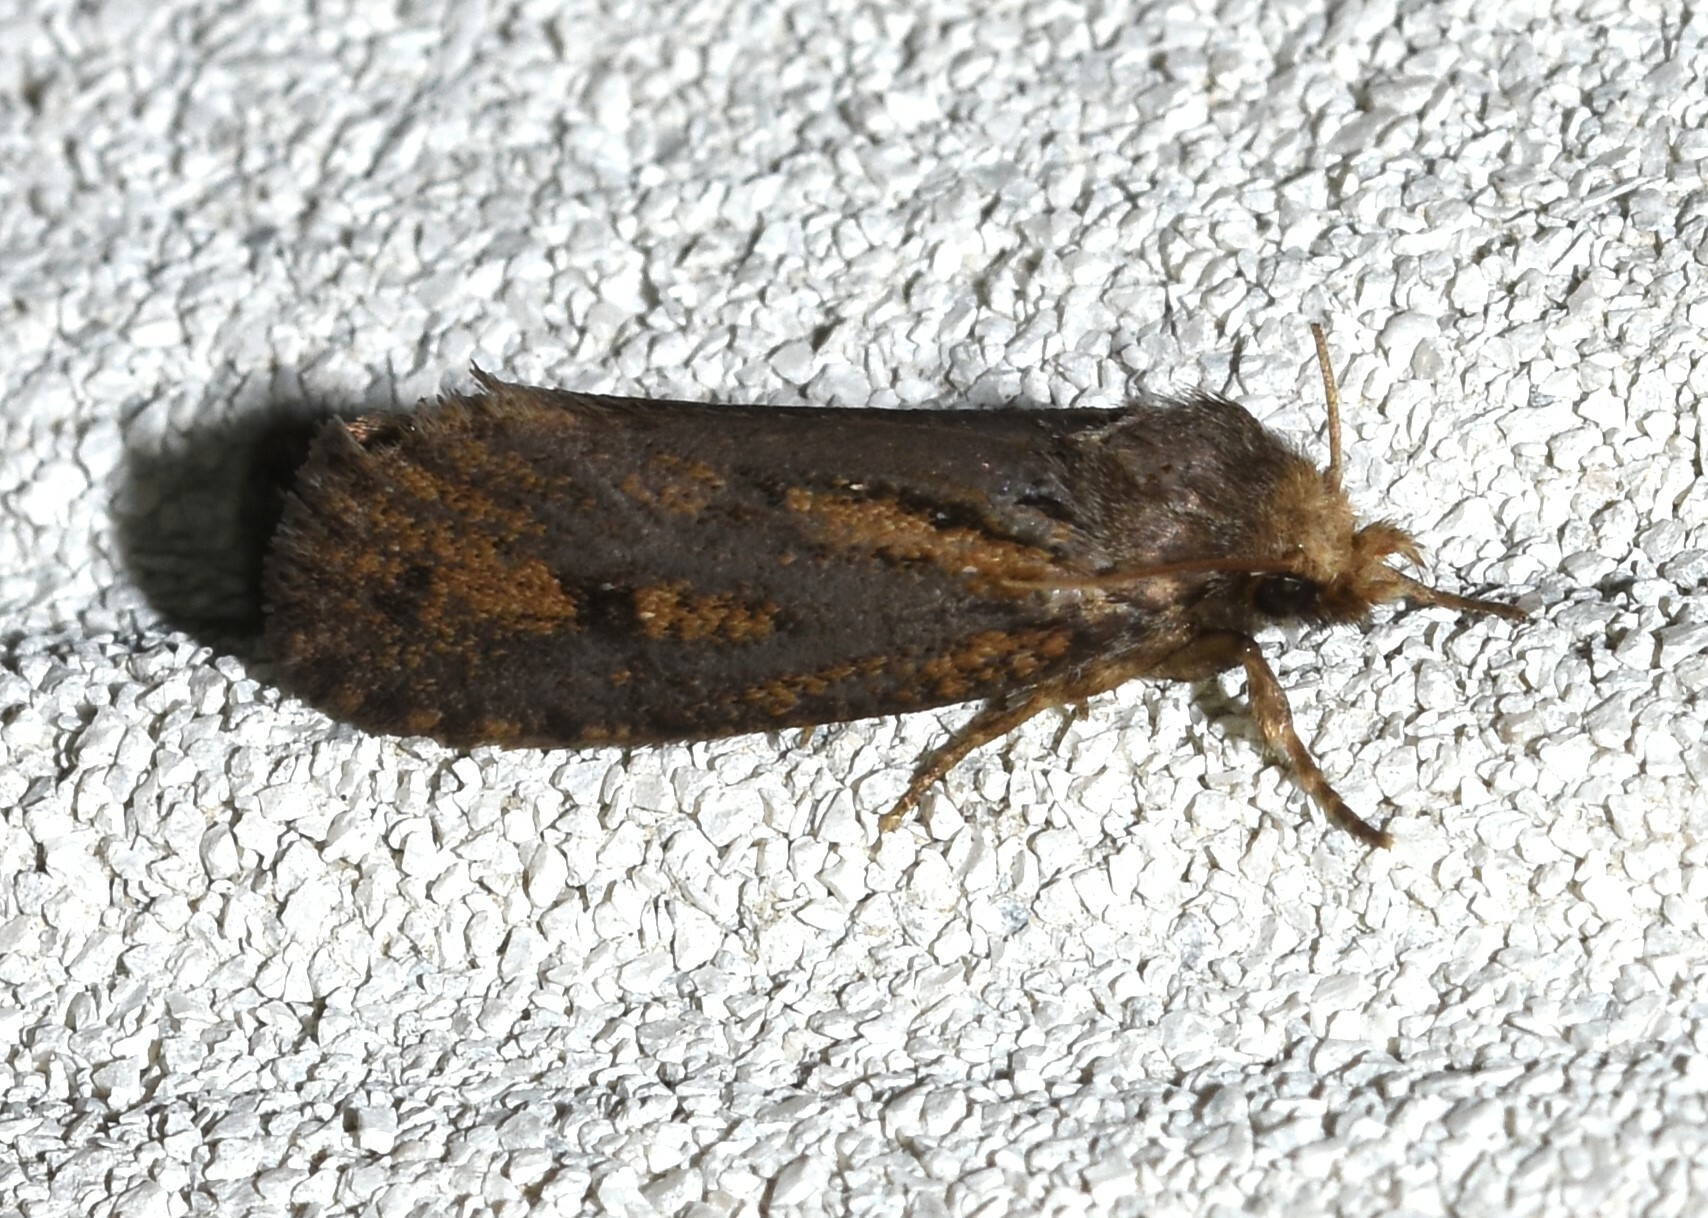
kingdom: Animalia
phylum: Arthropoda
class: Insecta
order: Lepidoptera
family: Tineidae
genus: Acrolophus
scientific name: Acrolophus popeanella
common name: Clemens' grass tubeworm moth
